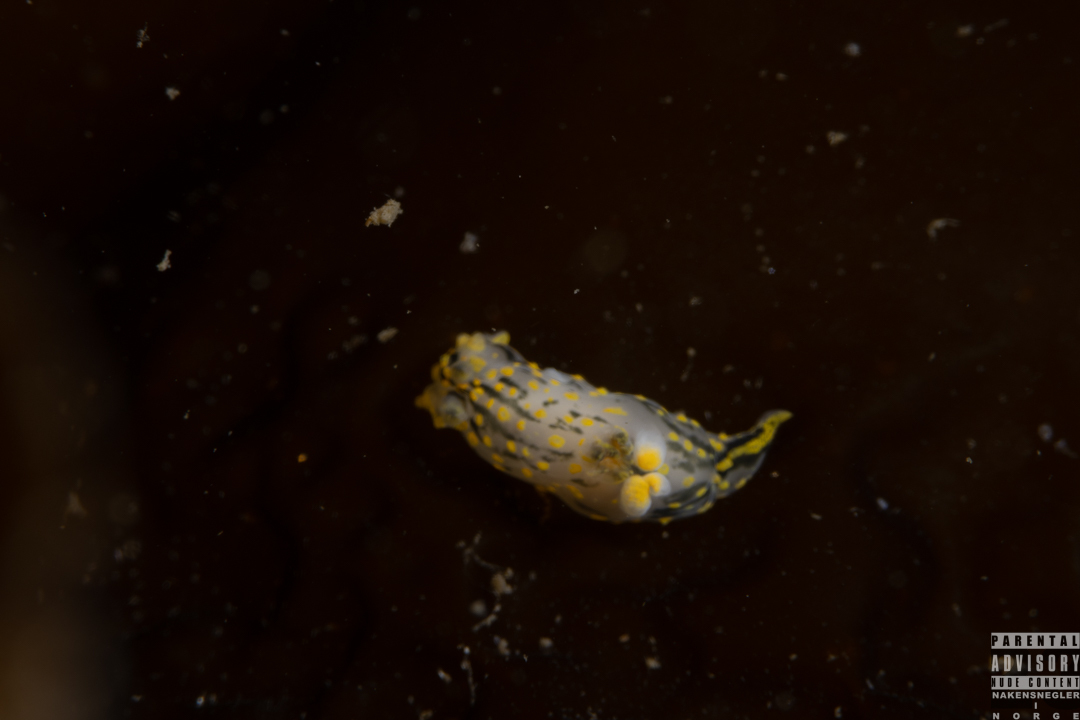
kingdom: Animalia
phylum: Mollusca
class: Gastropoda
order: Nudibranchia
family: Polyceridae
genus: Polycera
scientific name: Polycera quadrilineata
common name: Four-striped polycera
